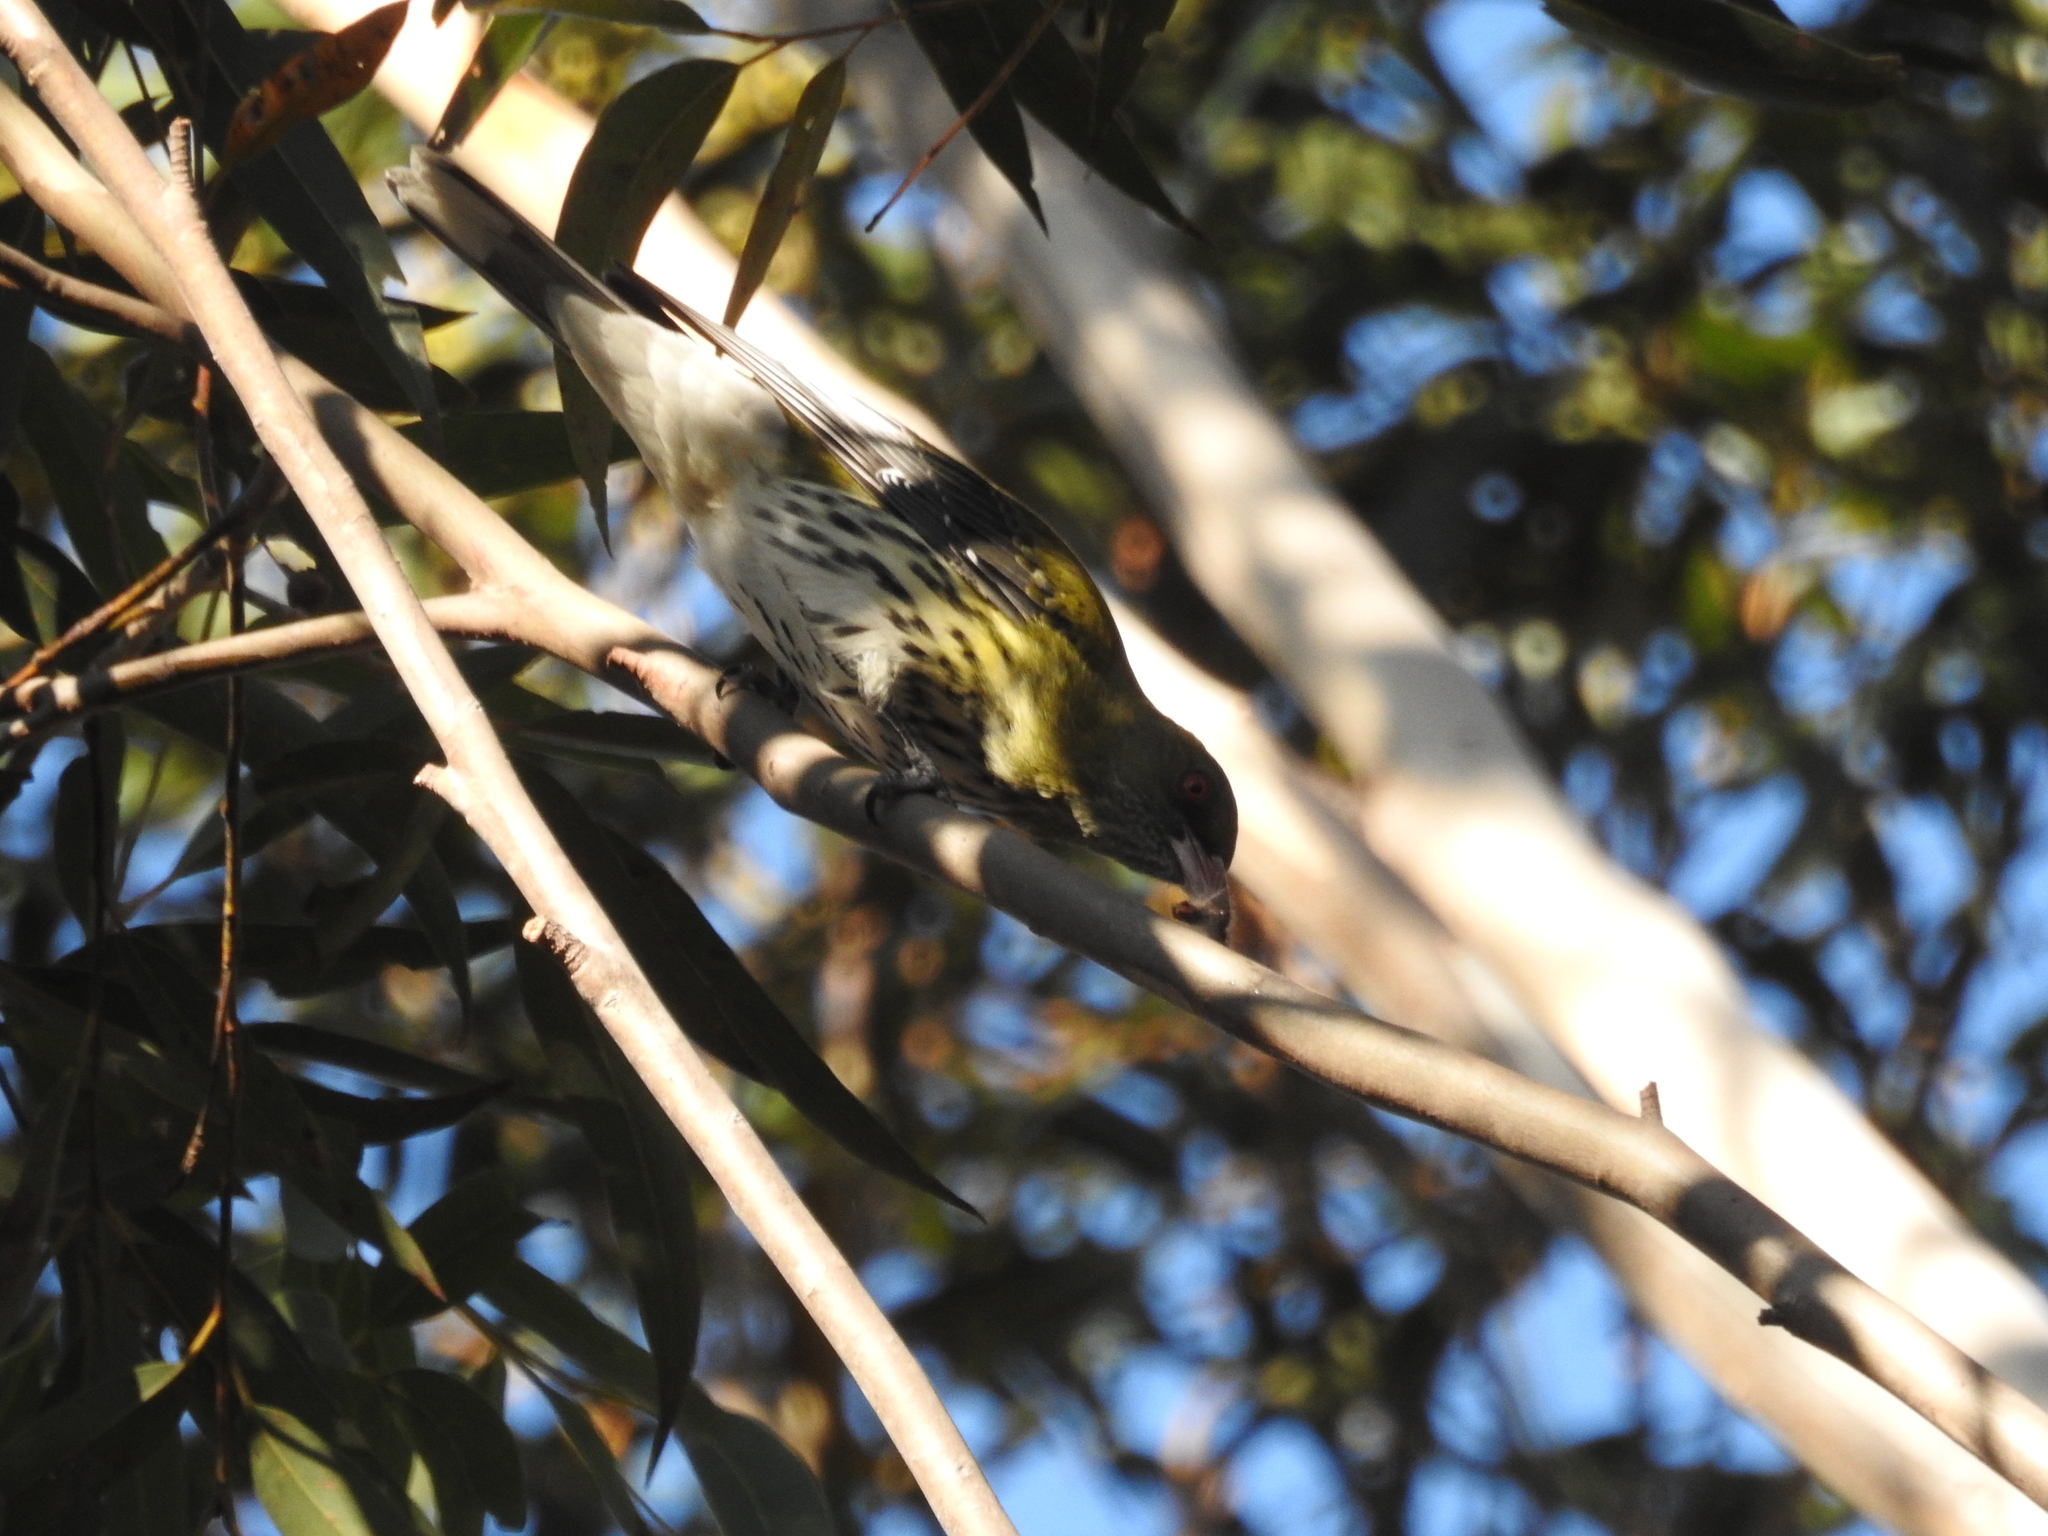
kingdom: Animalia
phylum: Chordata
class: Aves
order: Passeriformes
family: Oriolidae
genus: Oriolus
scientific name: Oriolus sagittatus
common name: Olive-backed oriole
